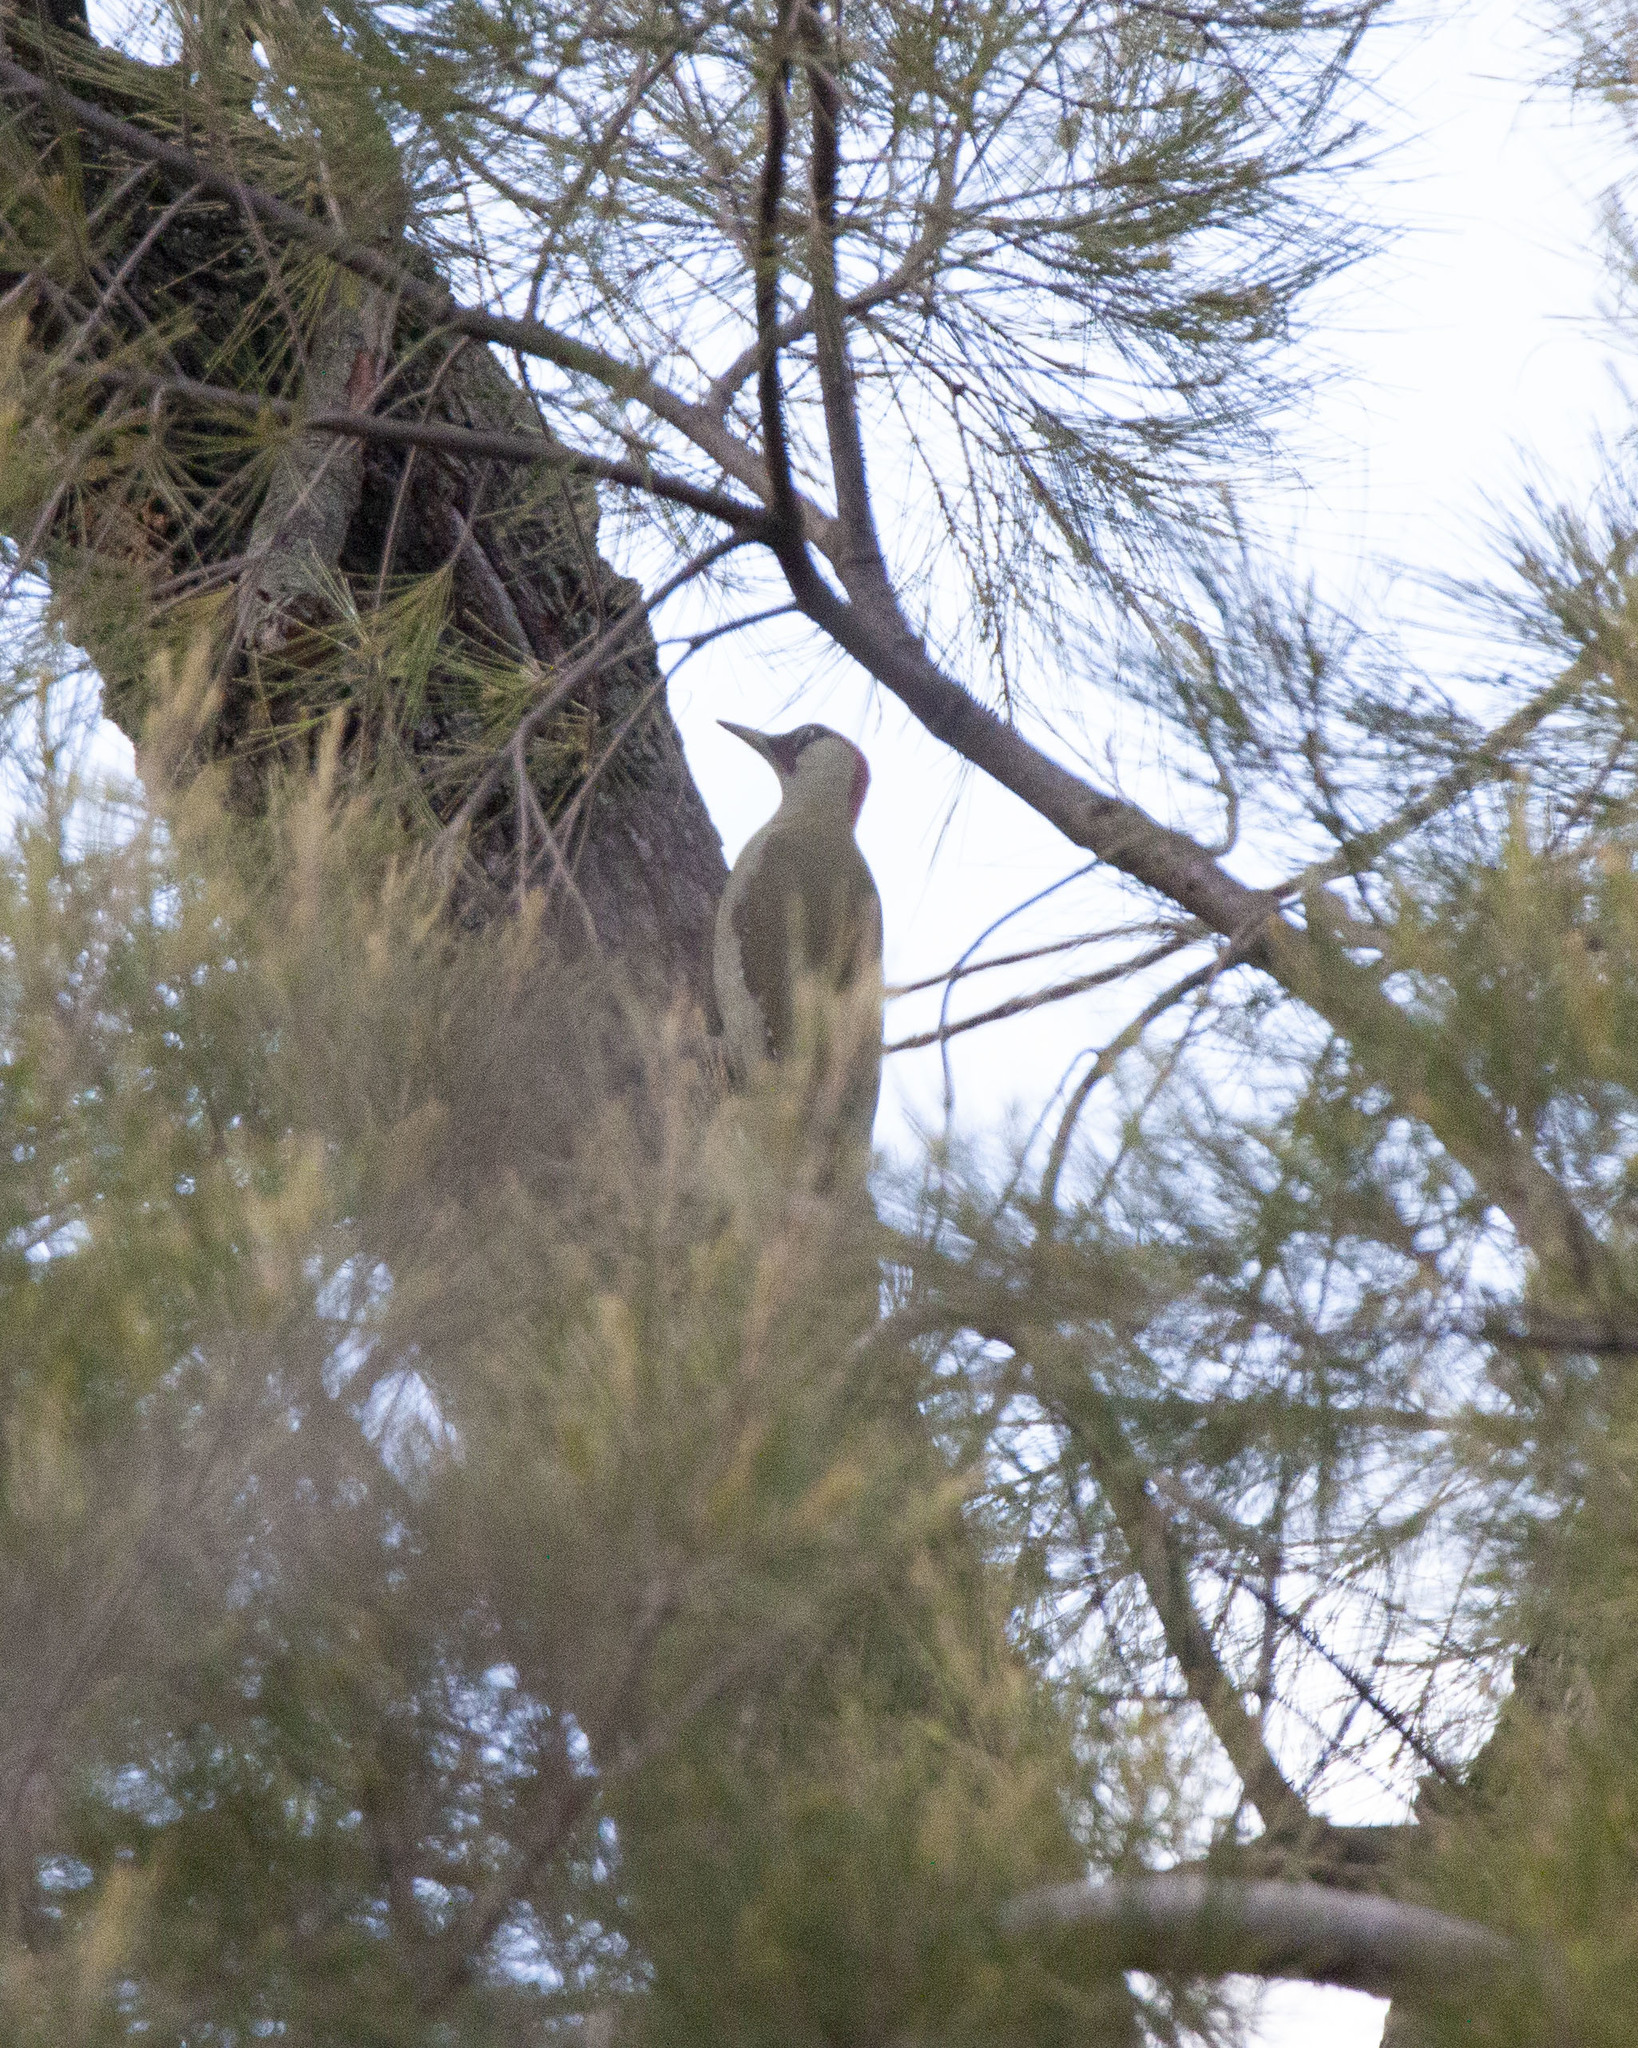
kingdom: Animalia
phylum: Chordata
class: Aves
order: Piciformes
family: Picidae
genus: Picus
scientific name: Picus viridis
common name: European green woodpecker
